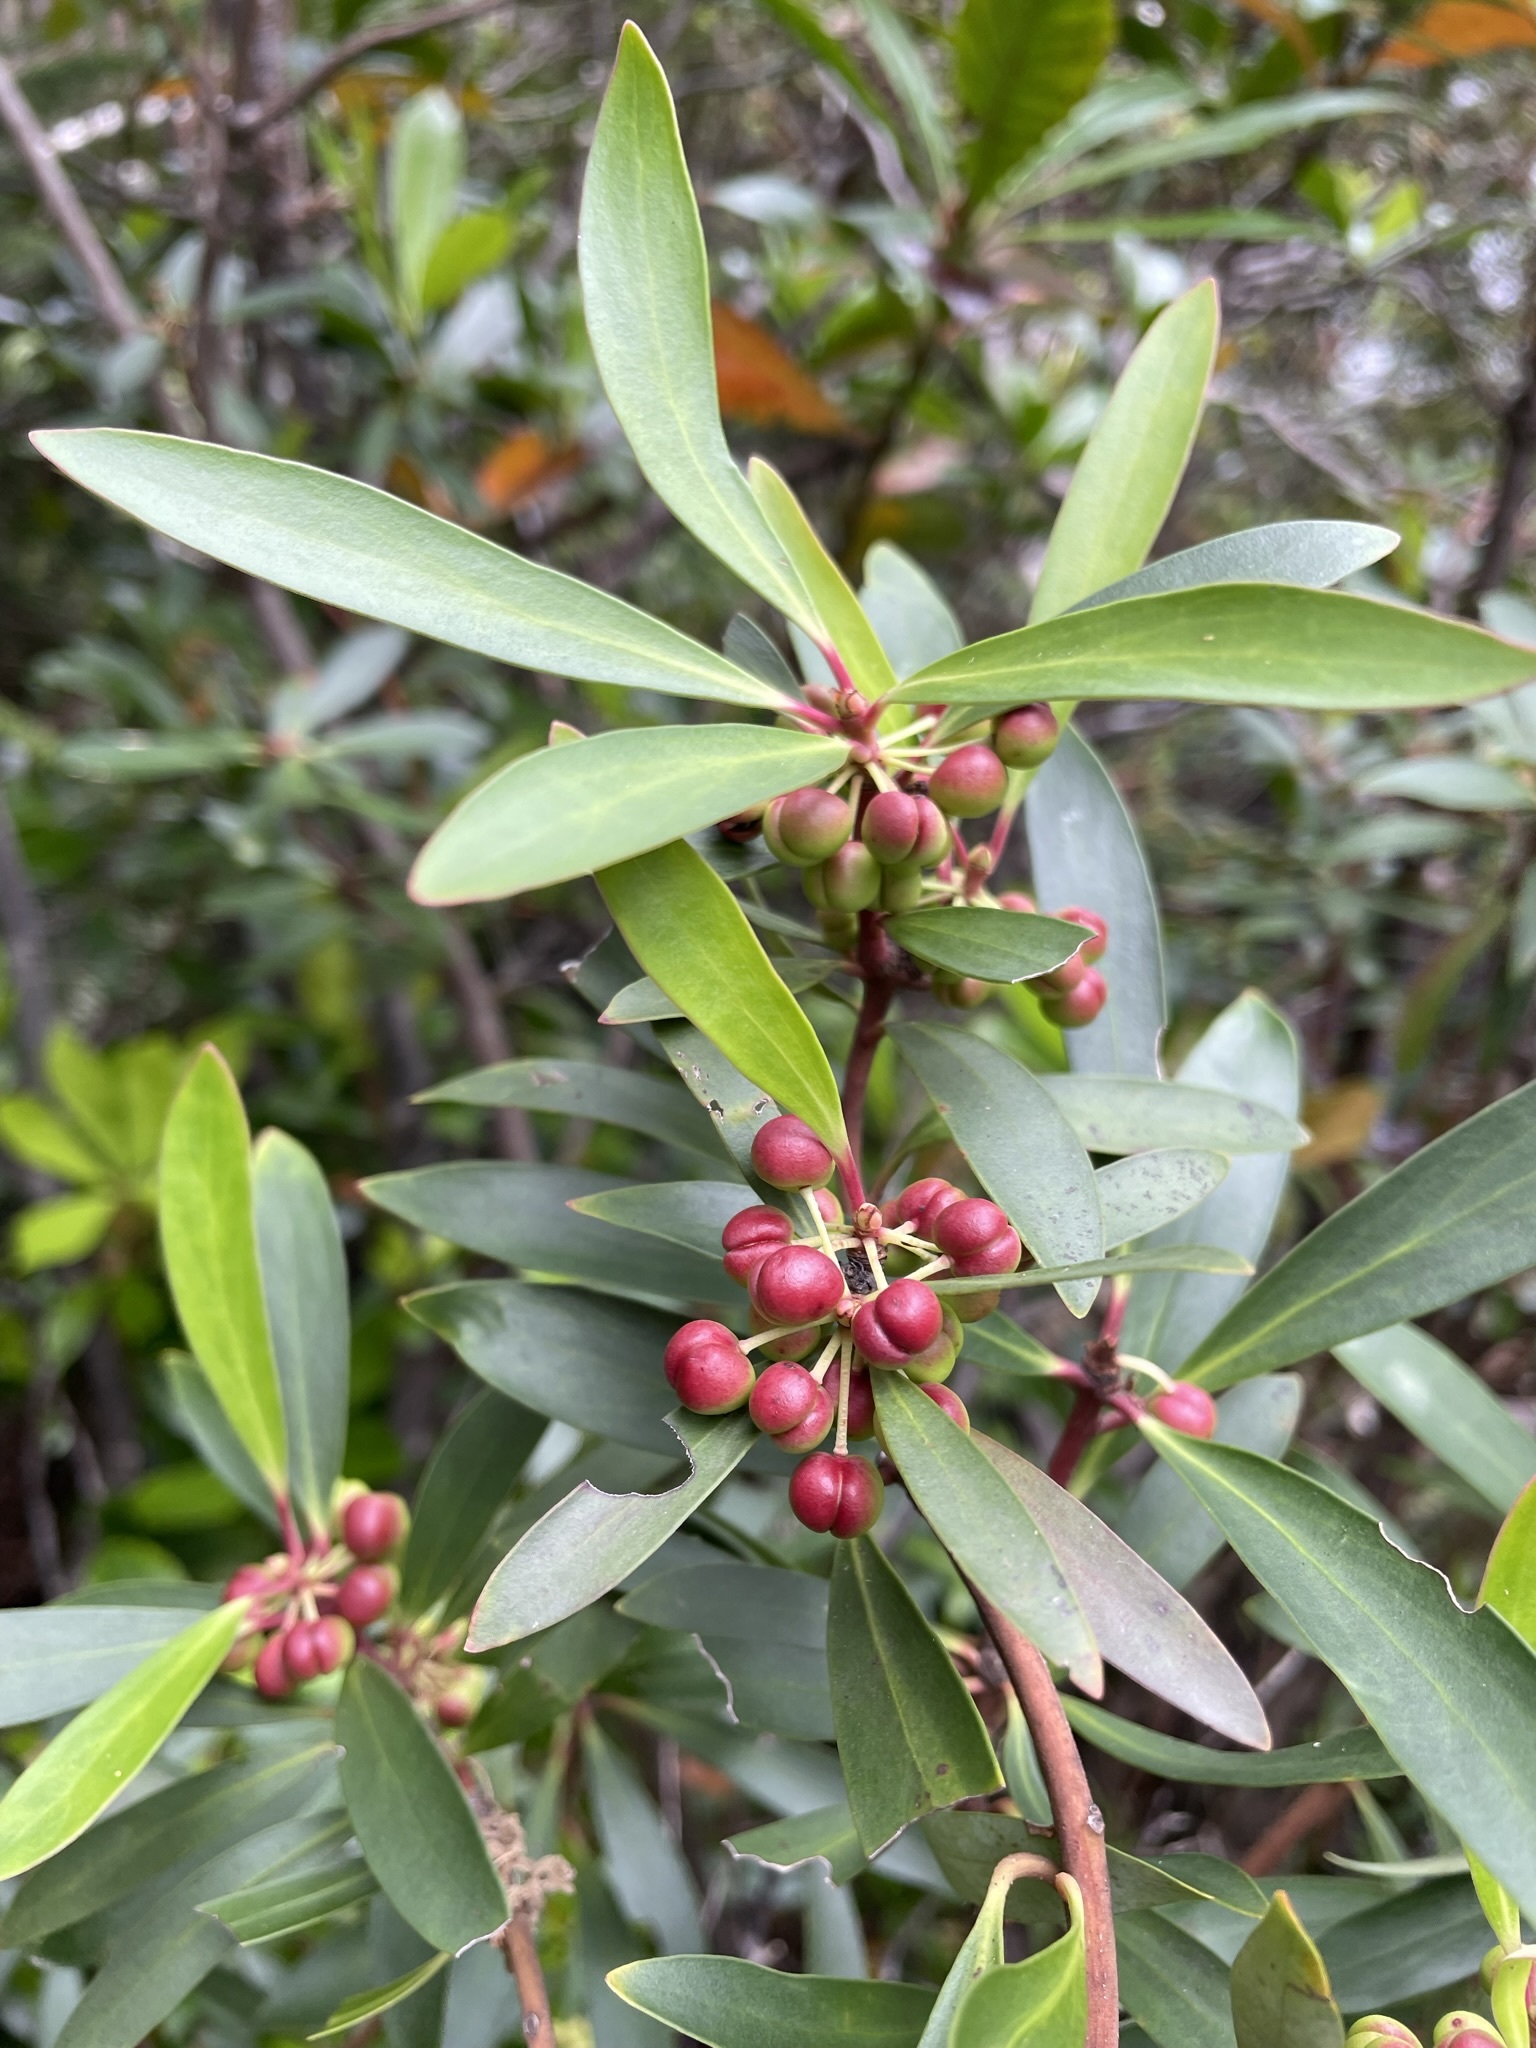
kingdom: Plantae
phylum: Tracheophyta
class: Magnoliopsida
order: Canellales
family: Winteraceae
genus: Drimys
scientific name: Drimys aromatica
